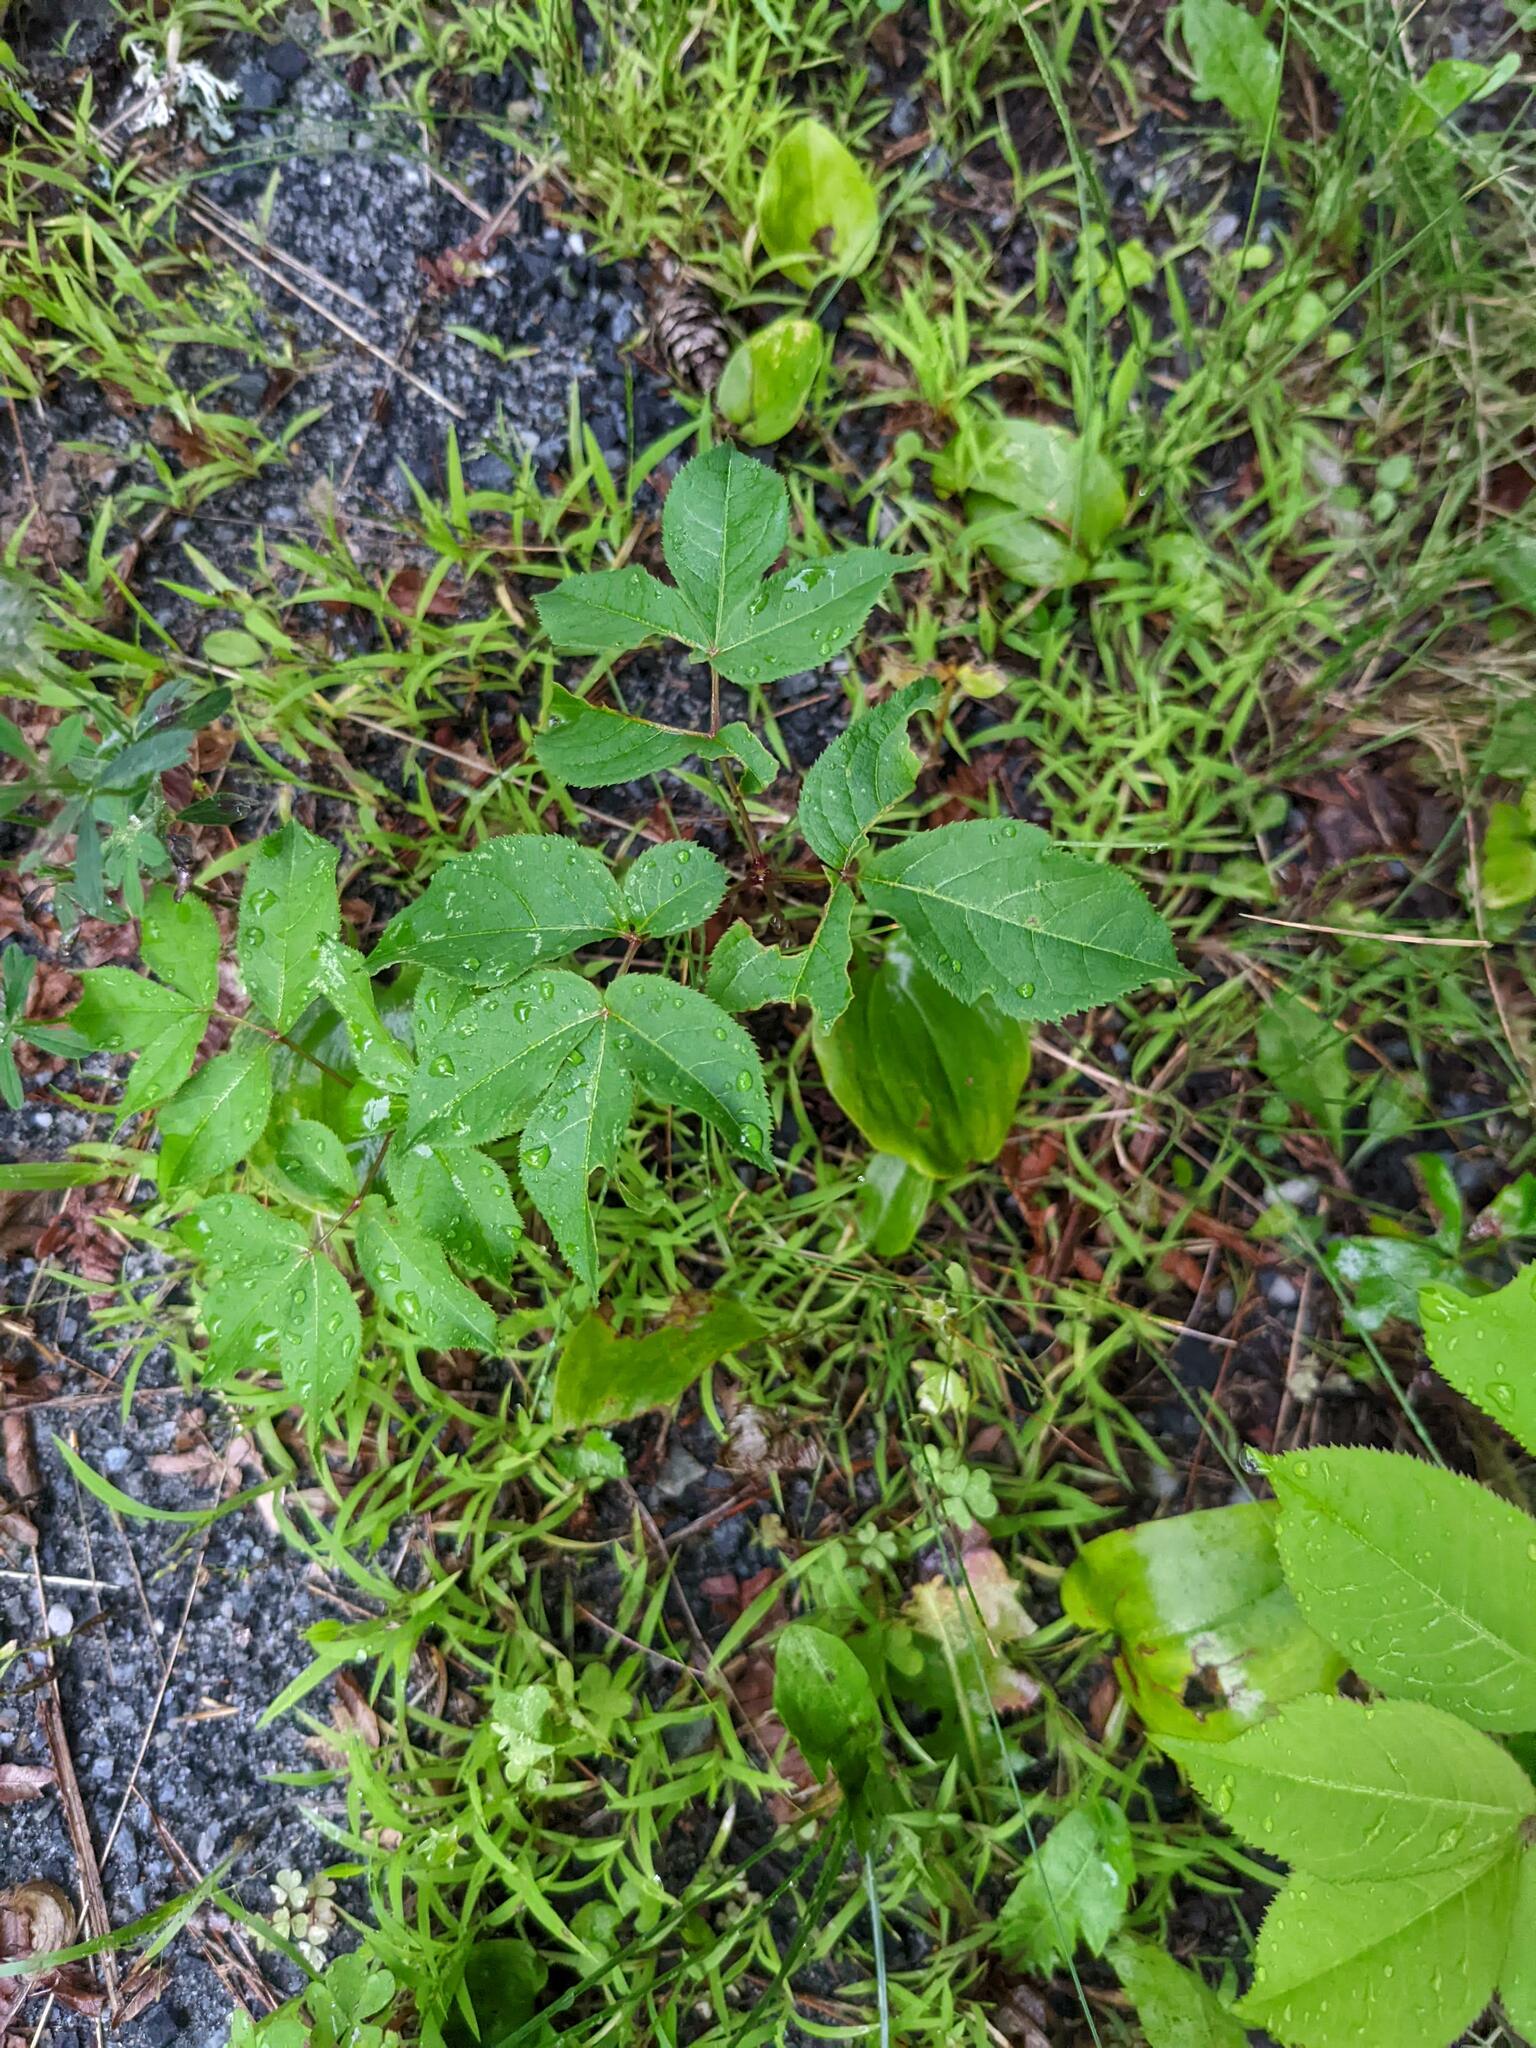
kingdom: Plantae
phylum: Tracheophyta
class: Magnoliopsida
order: Apiales
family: Araliaceae
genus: Aralia
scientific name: Aralia nudicaulis
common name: Wild sarsaparilla
